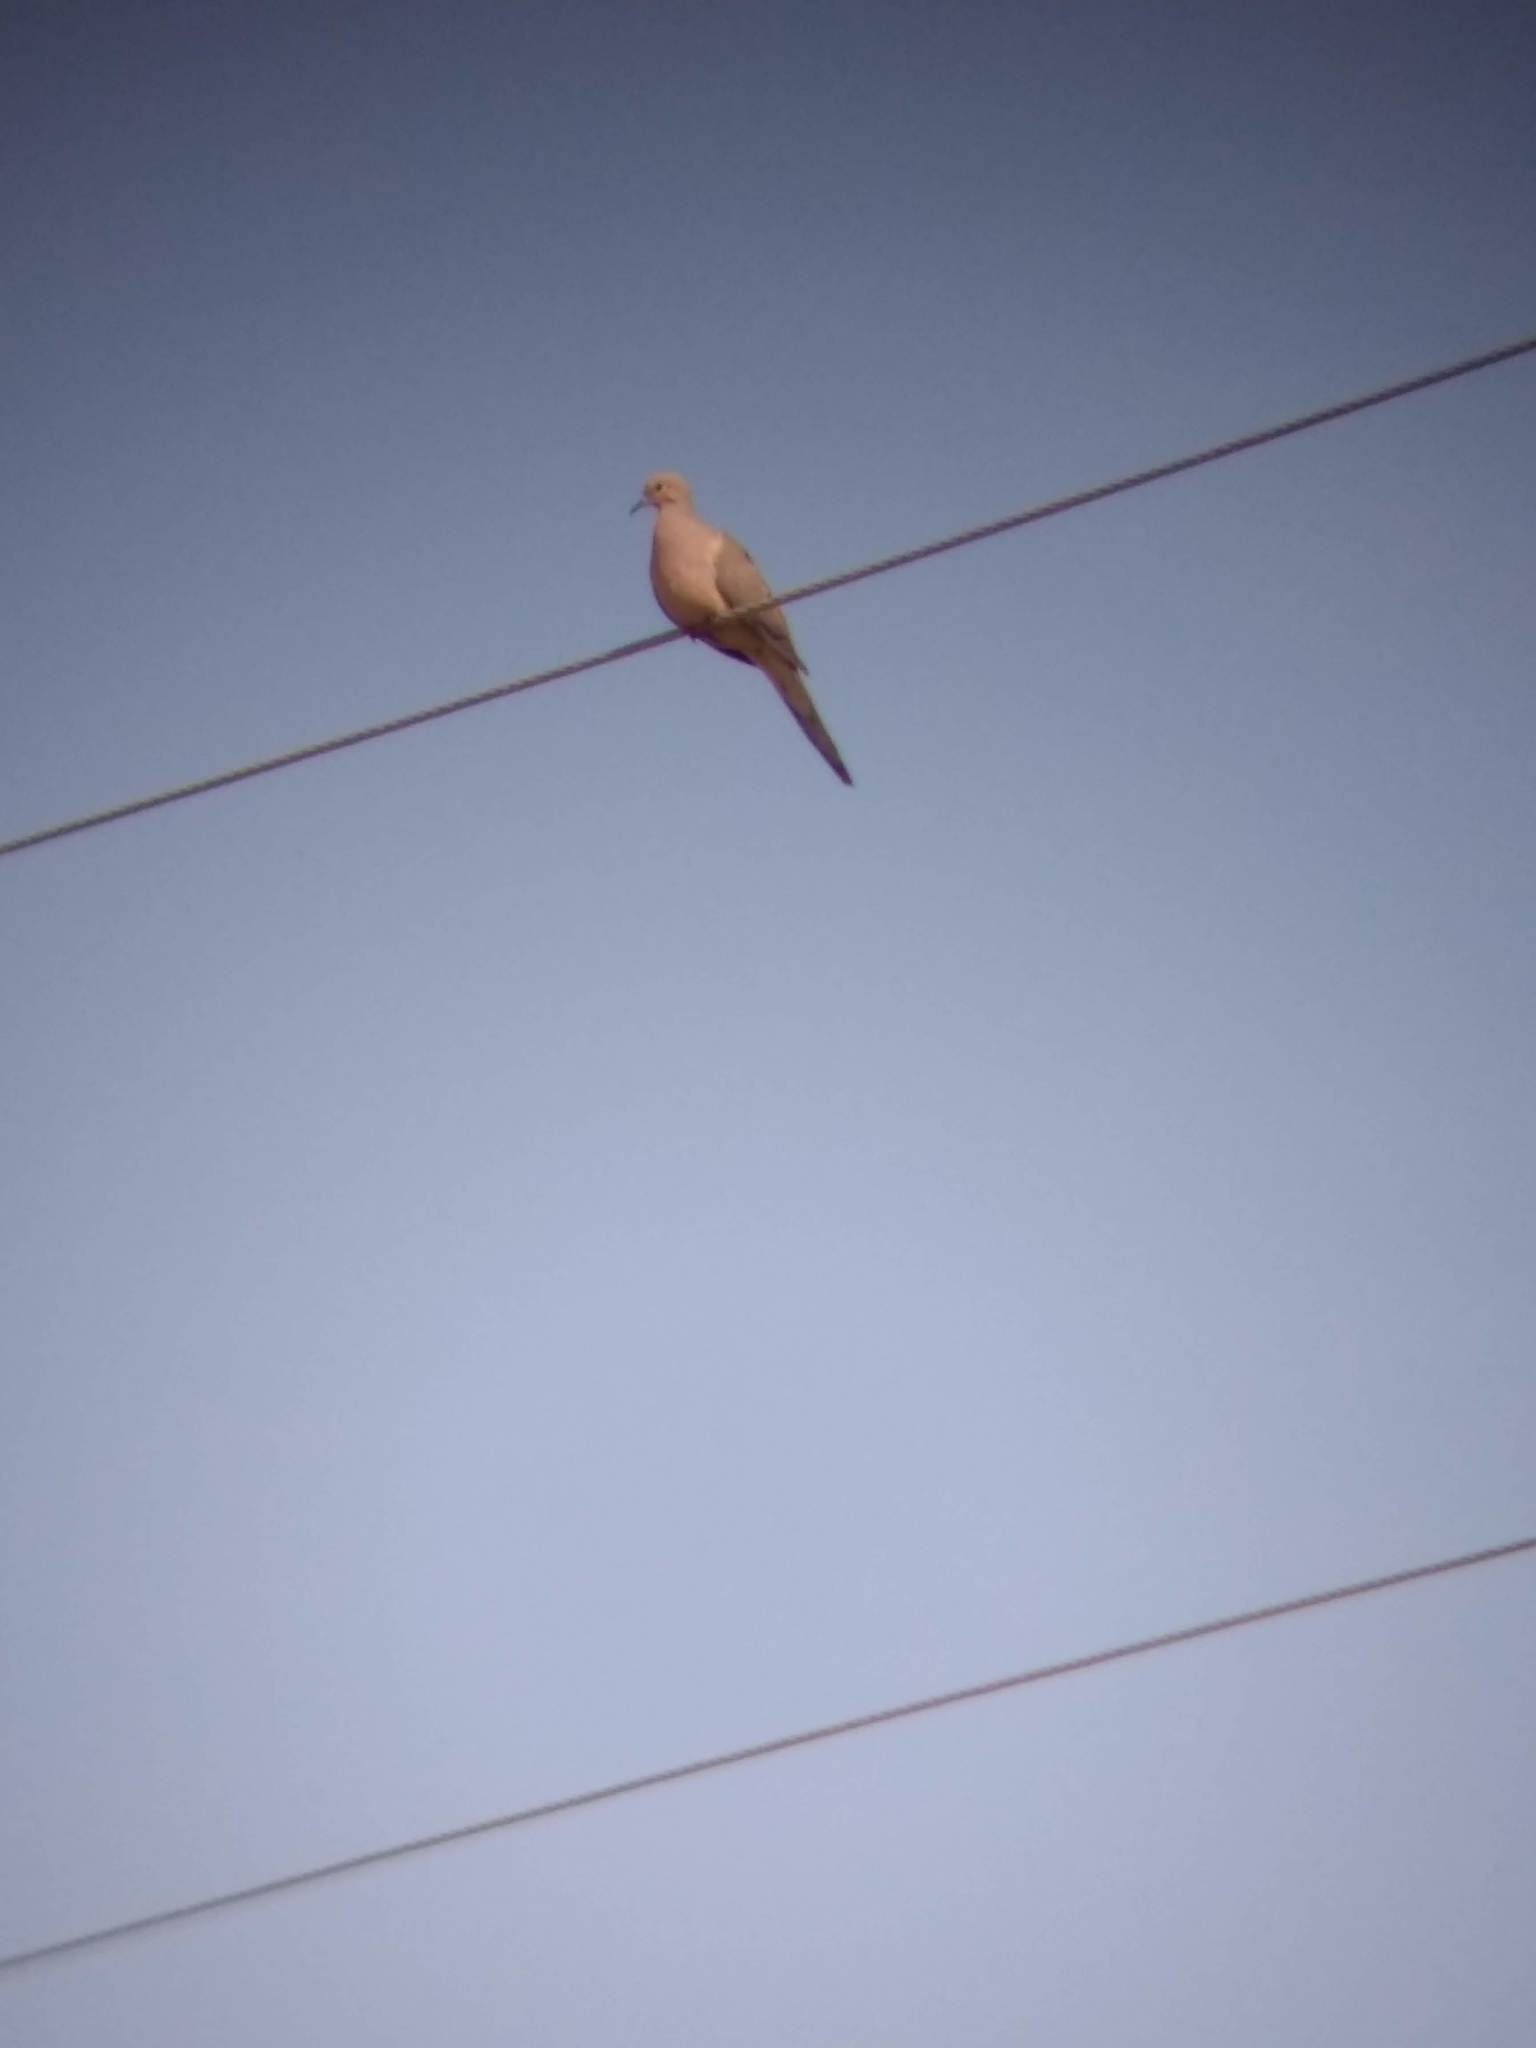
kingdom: Animalia
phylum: Chordata
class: Aves
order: Columbiformes
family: Columbidae
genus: Zenaida
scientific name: Zenaida macroura
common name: Mourning dove
